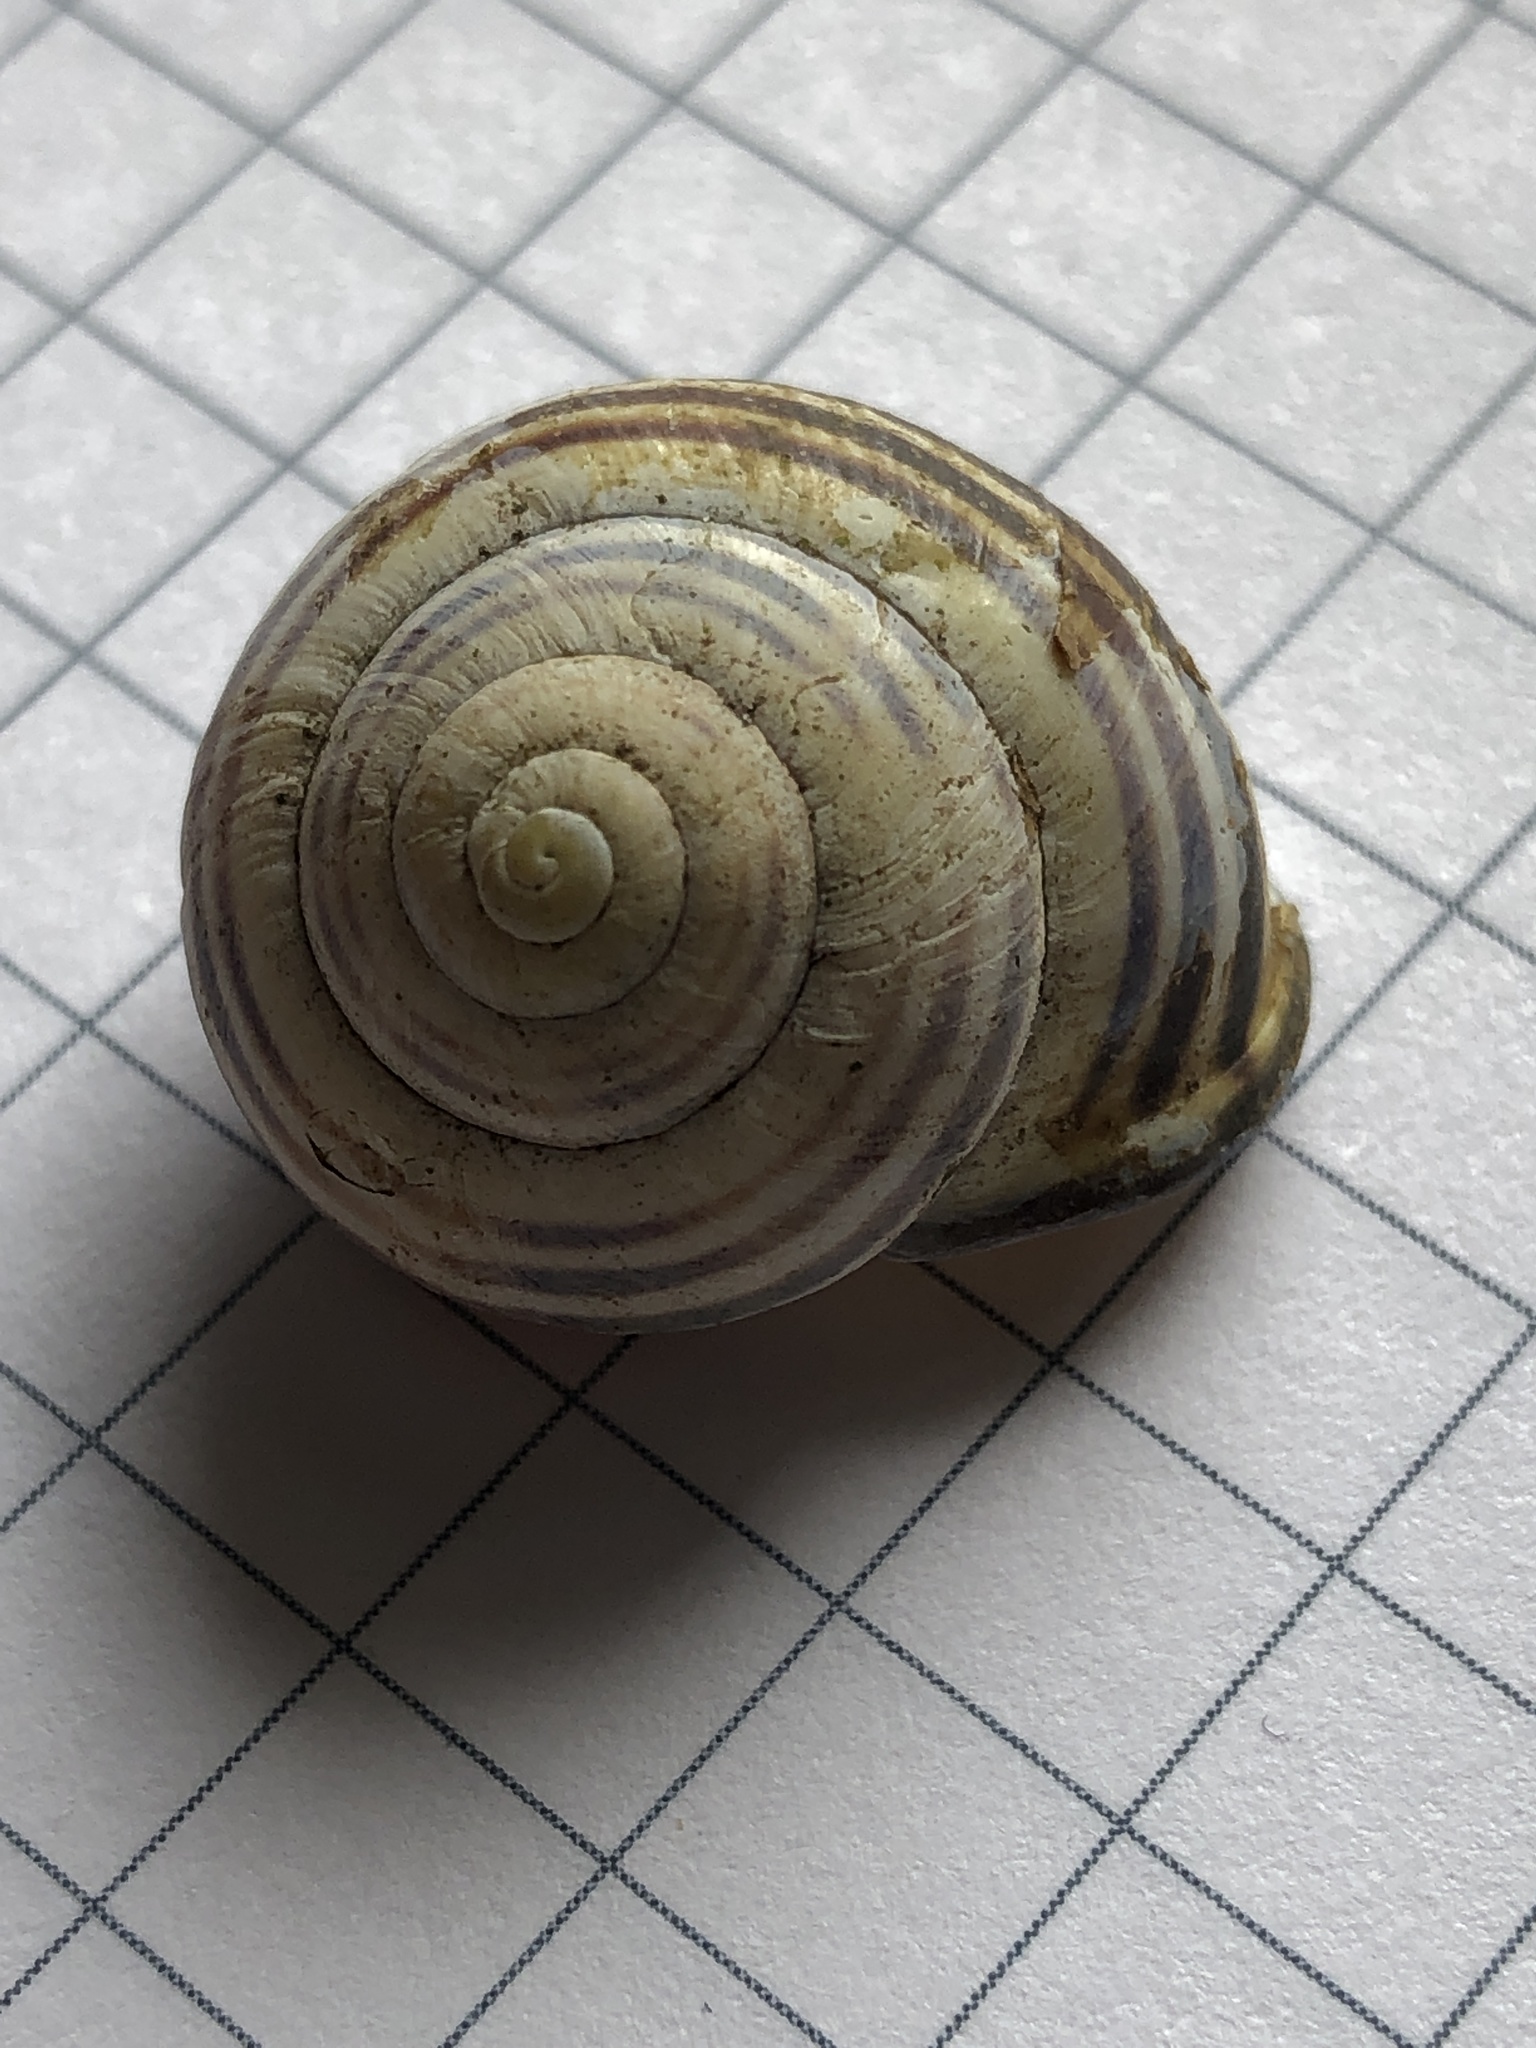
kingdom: Animalia
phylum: Mollusca
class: Gastropoda
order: Stylommatophora
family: Helicidae
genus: Cepaea
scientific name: Cepaea nemoralis
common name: Grovesnail
